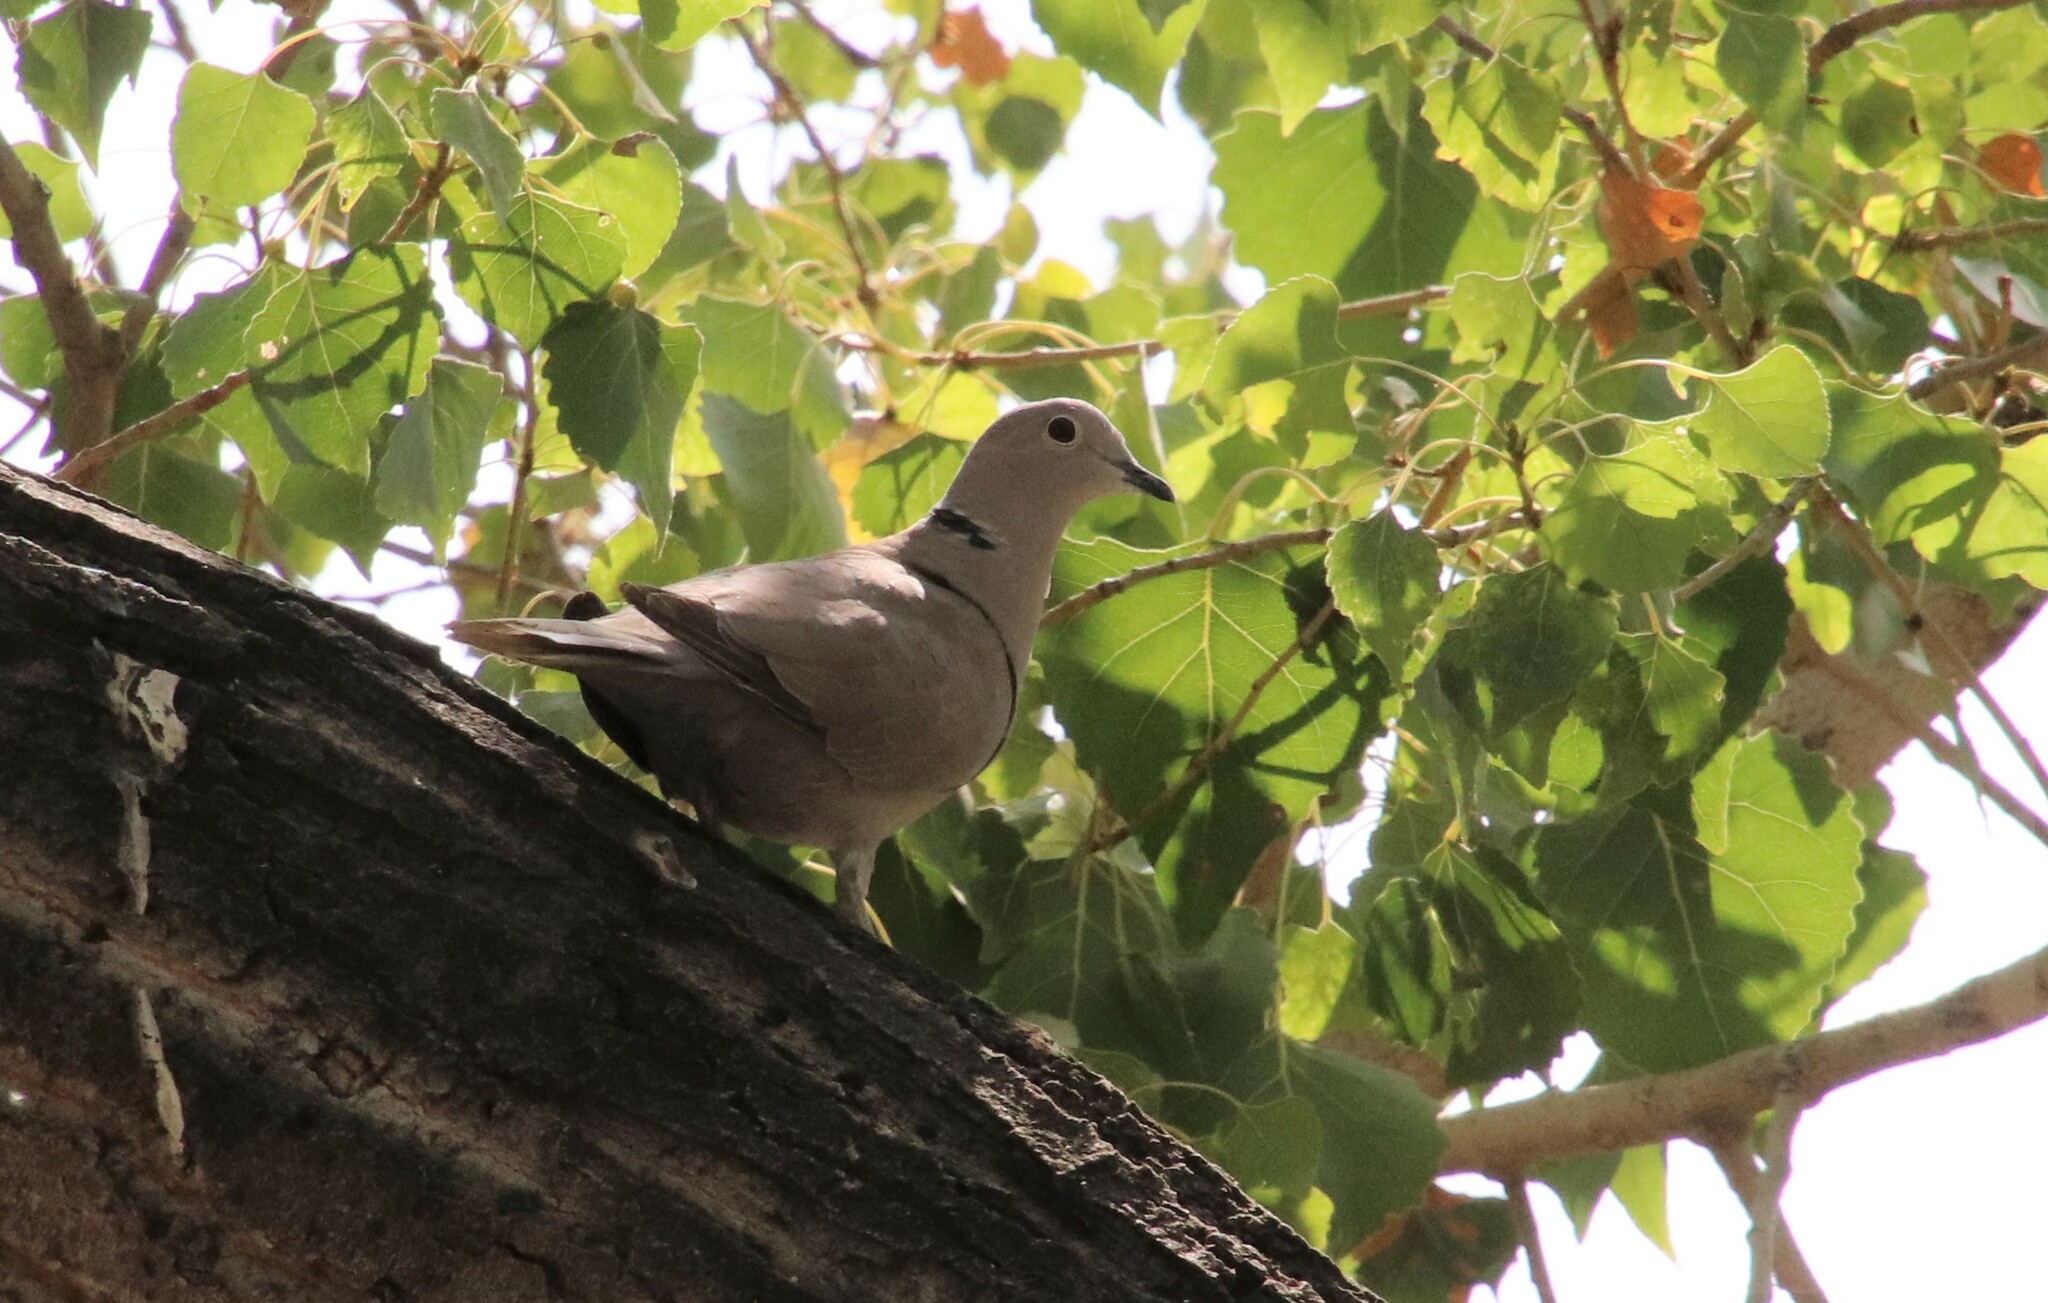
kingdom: Animalia
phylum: Chordata
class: Aves
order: Columbiformes
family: Columbidae
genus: Streptopelia
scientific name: Streptopelia decaocto
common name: Eurasian collared dove
